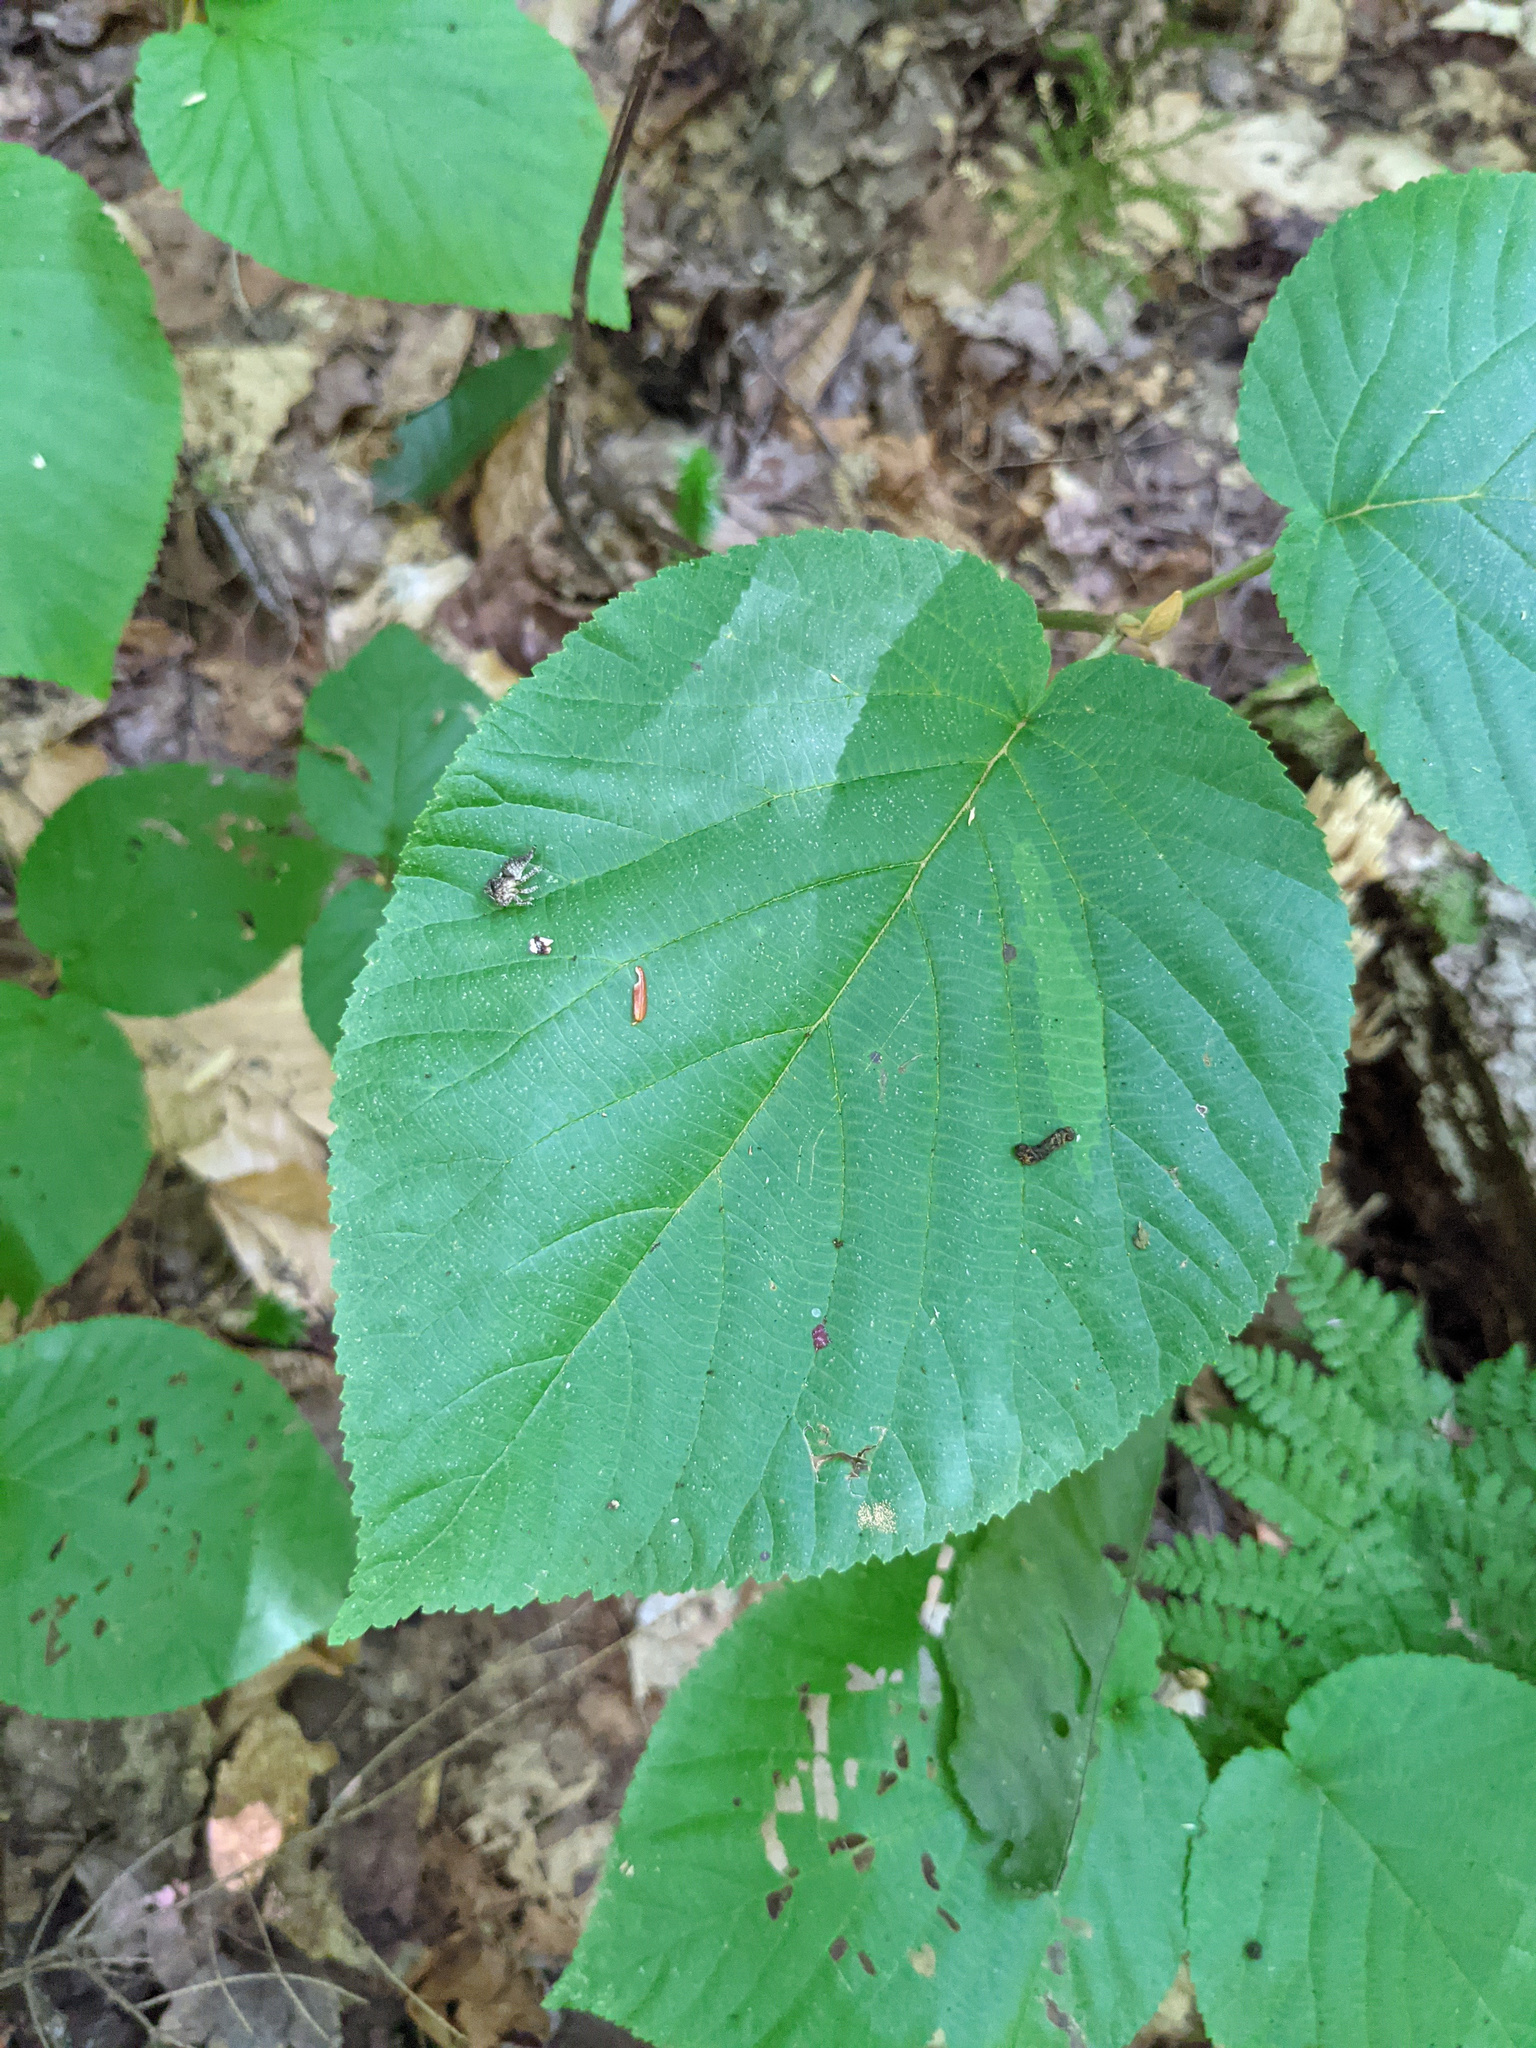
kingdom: Plantae
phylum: Tracheophyta
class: Magnoliopsida
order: Dipsacales
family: Viburnaceae
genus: Viburnum
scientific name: Viburnum lantanoides
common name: Hobblebush
